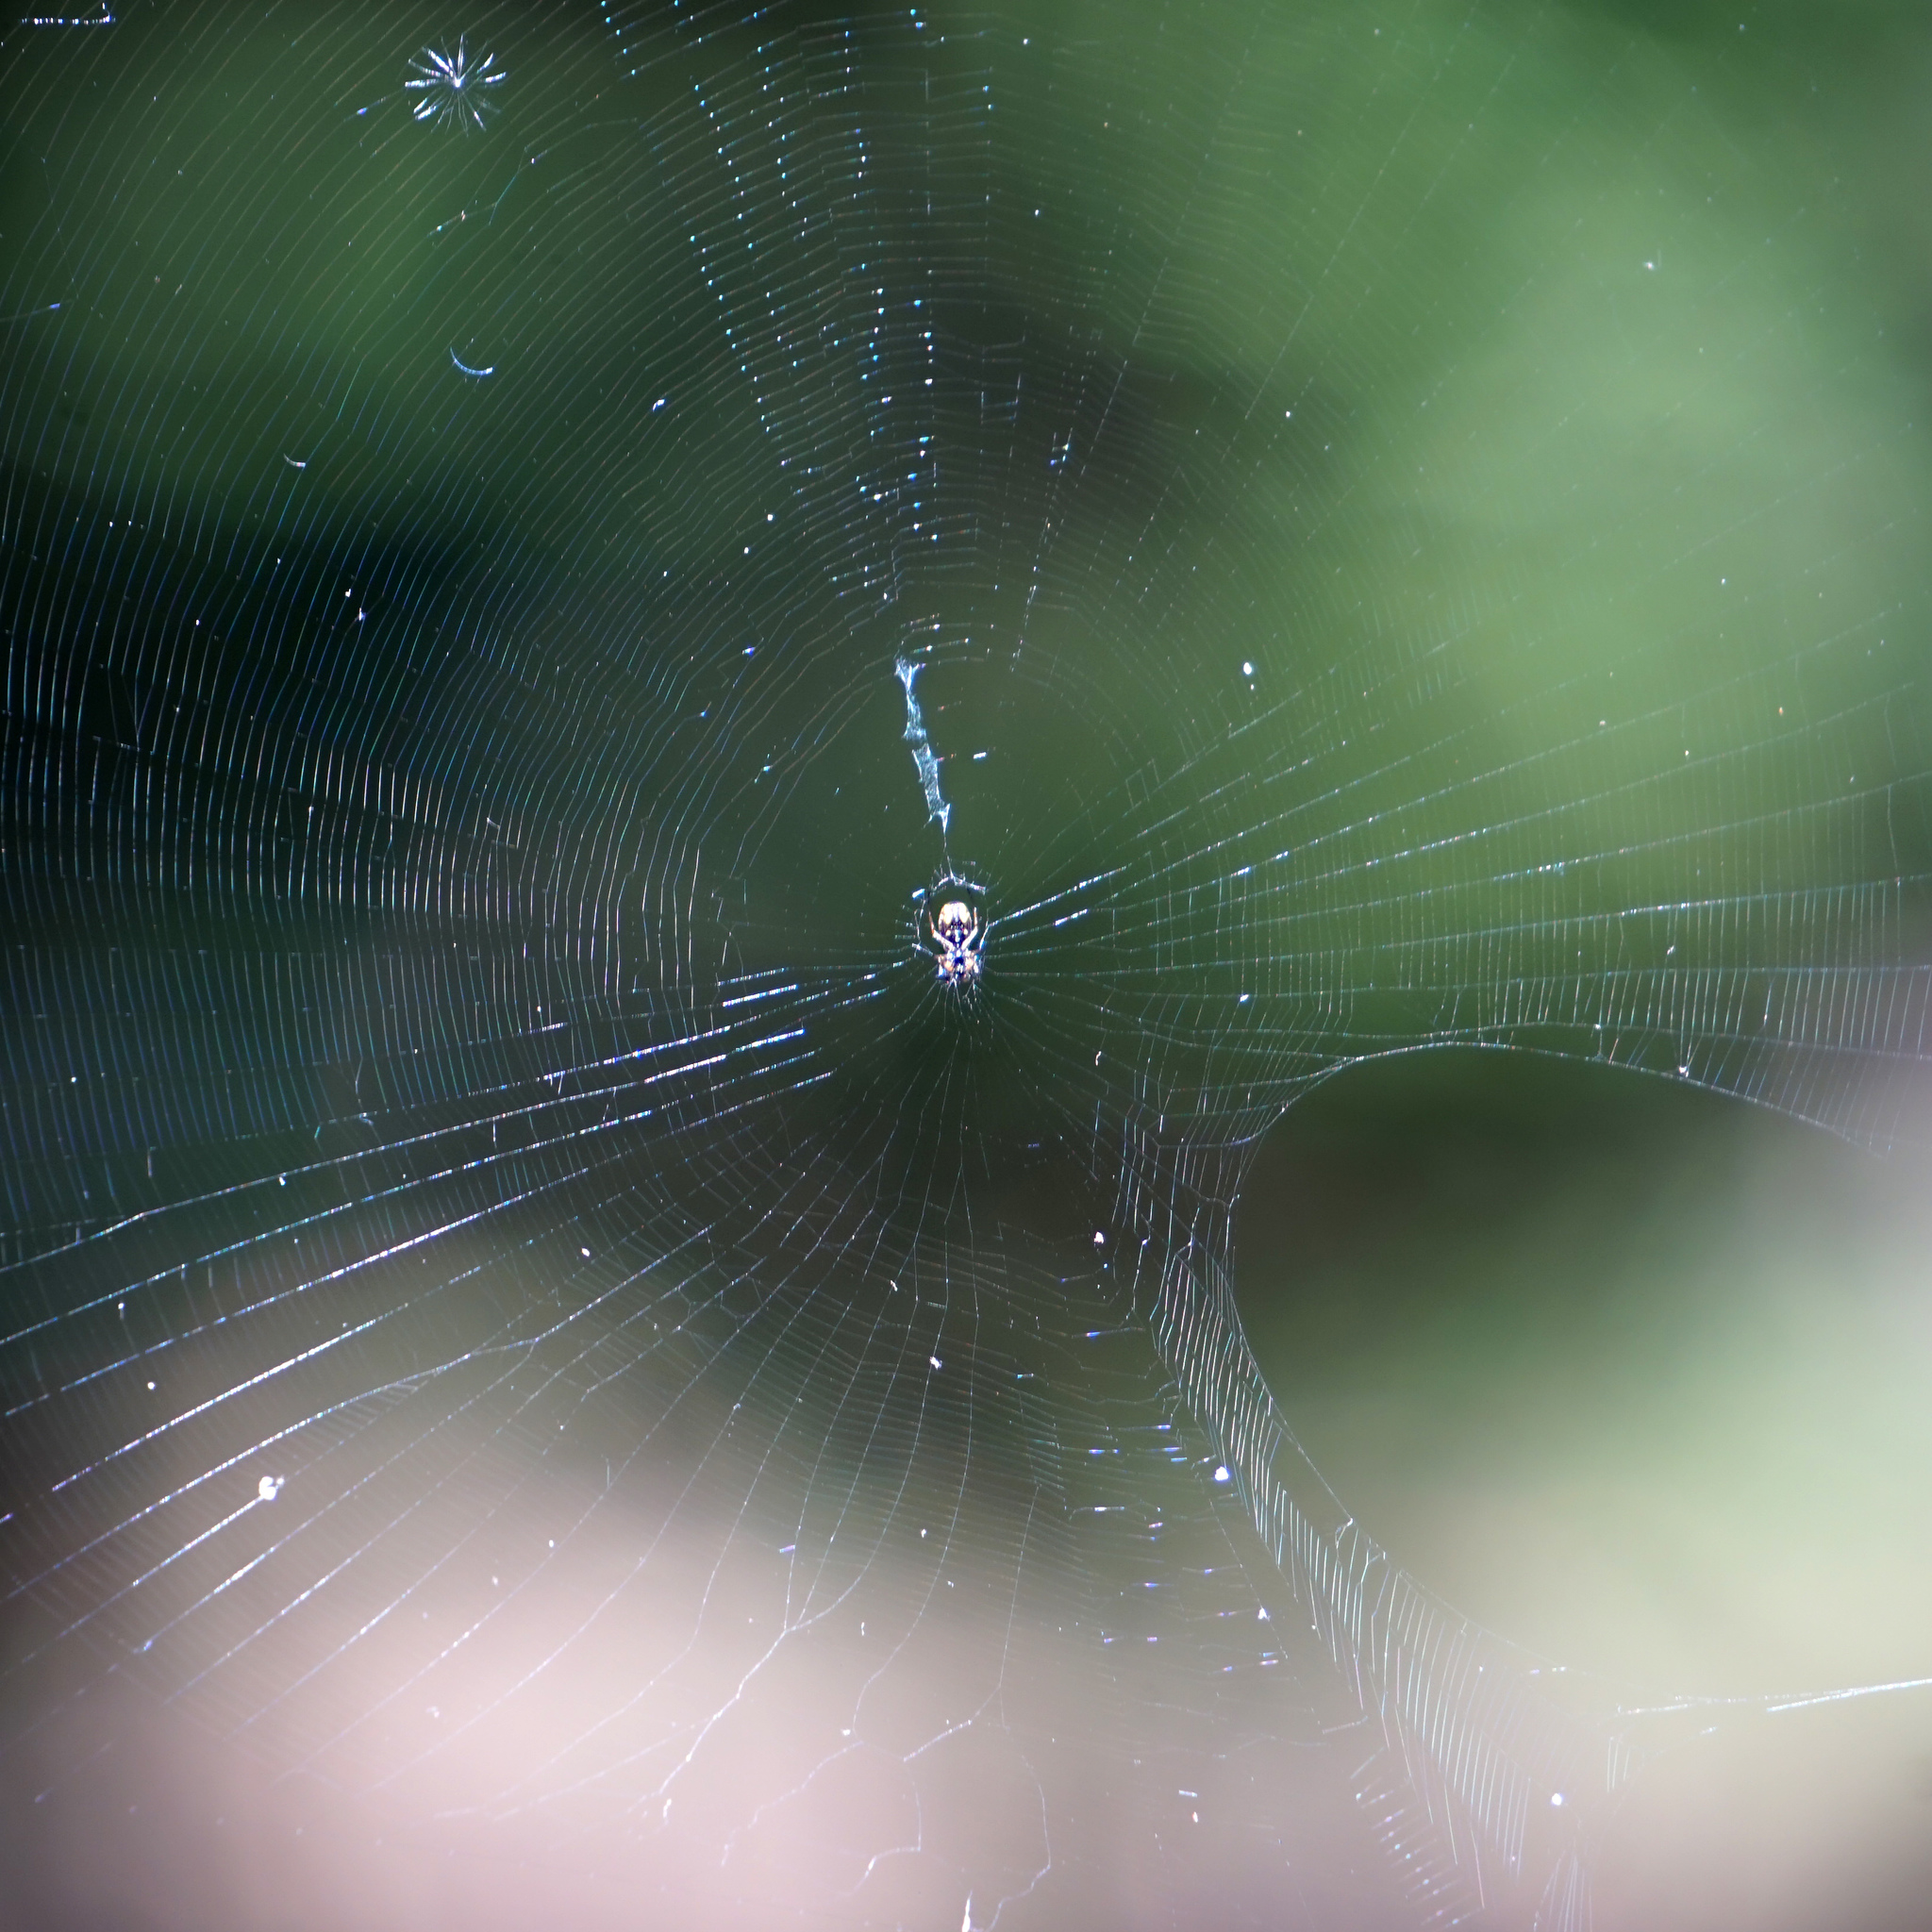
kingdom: Animalia
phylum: Arthropoda
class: Arachnida
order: Araneae
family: Araneidae
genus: Micrathena
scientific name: Micrathena mitrata
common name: Orb weavers
